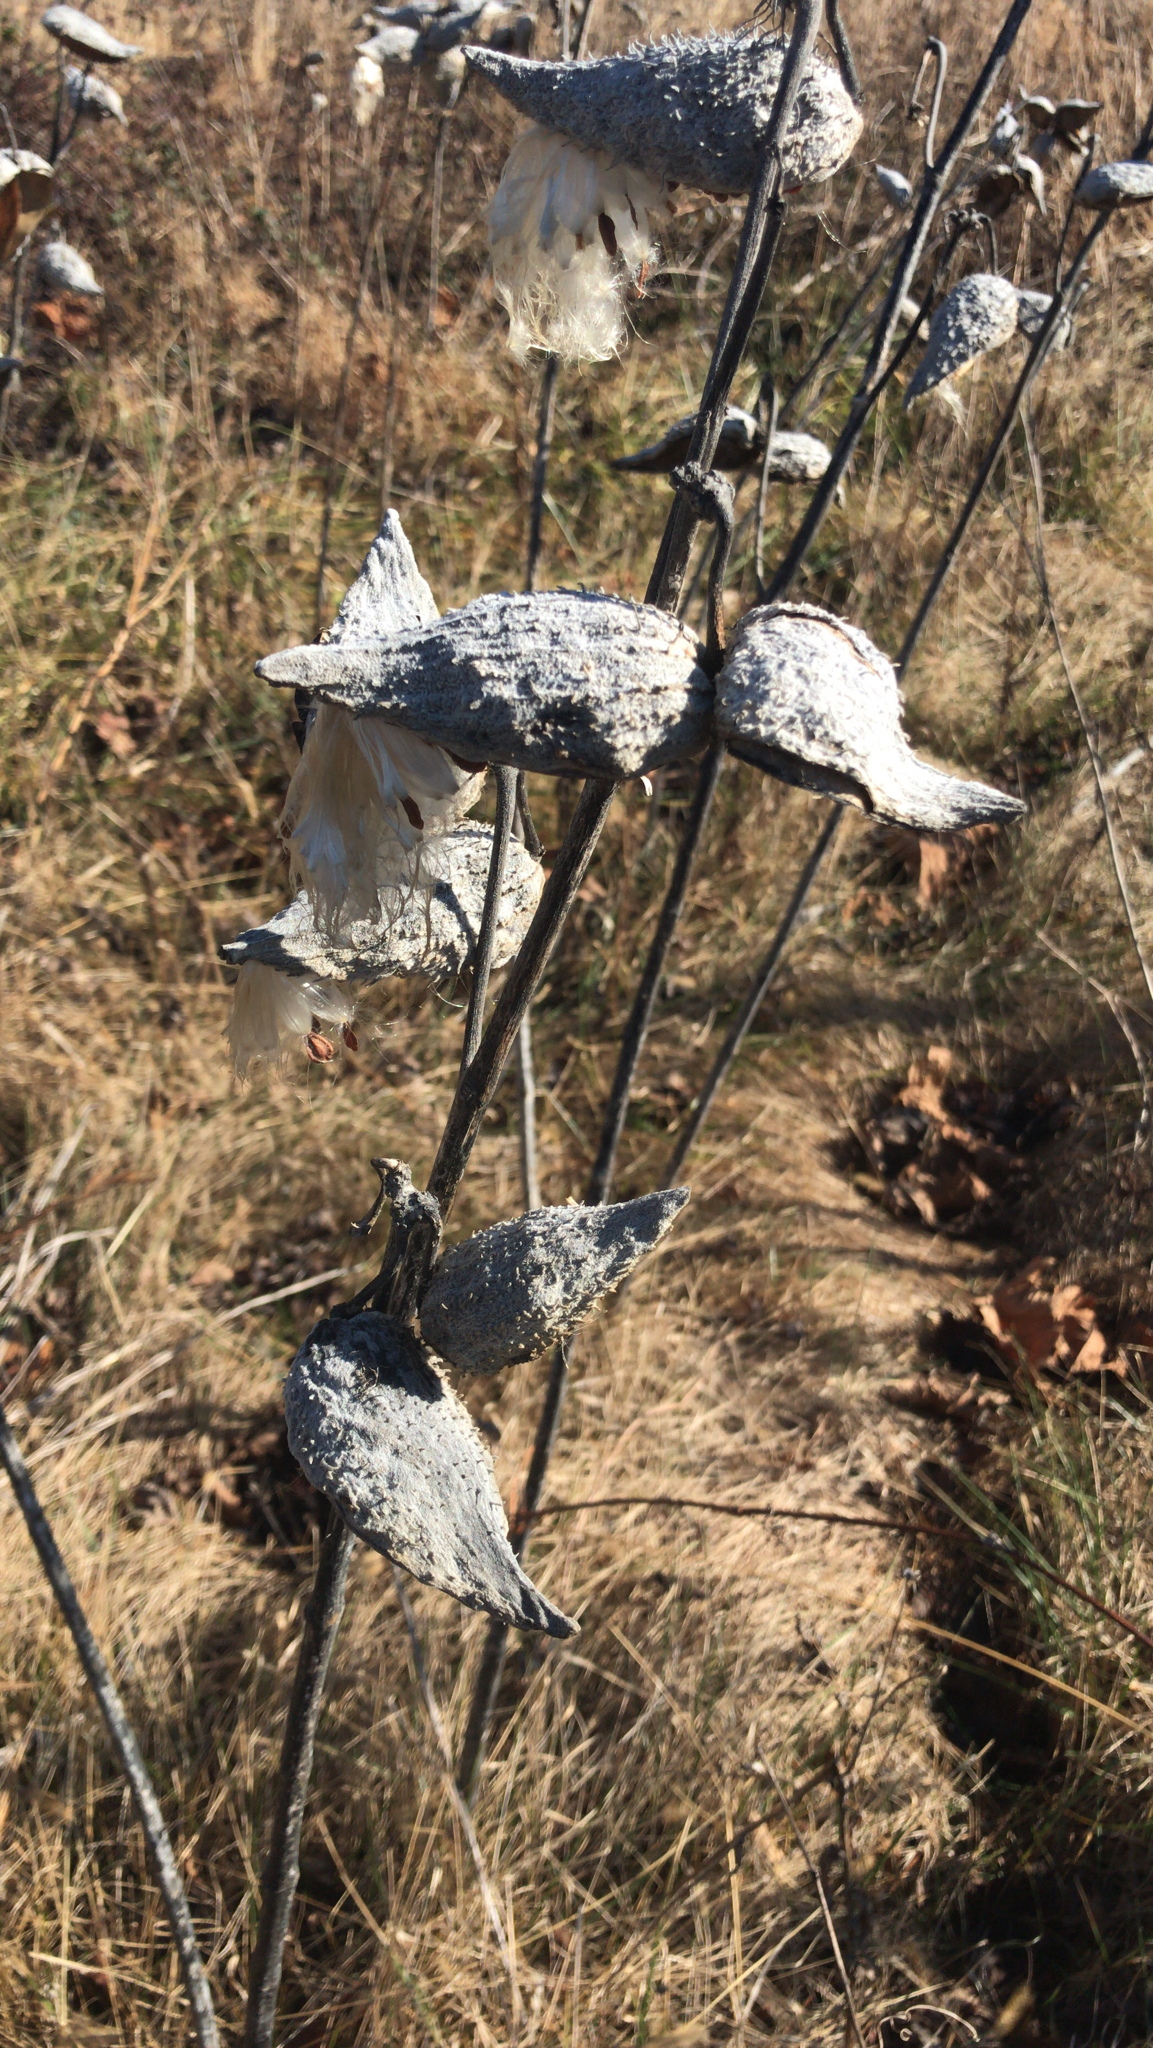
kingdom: Plantae
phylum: Tracheophyta
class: Magnoliopsida
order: Gentianales
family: Apocynaceae
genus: Asclepias
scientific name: Asclepias syriaca
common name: Common milkweed
